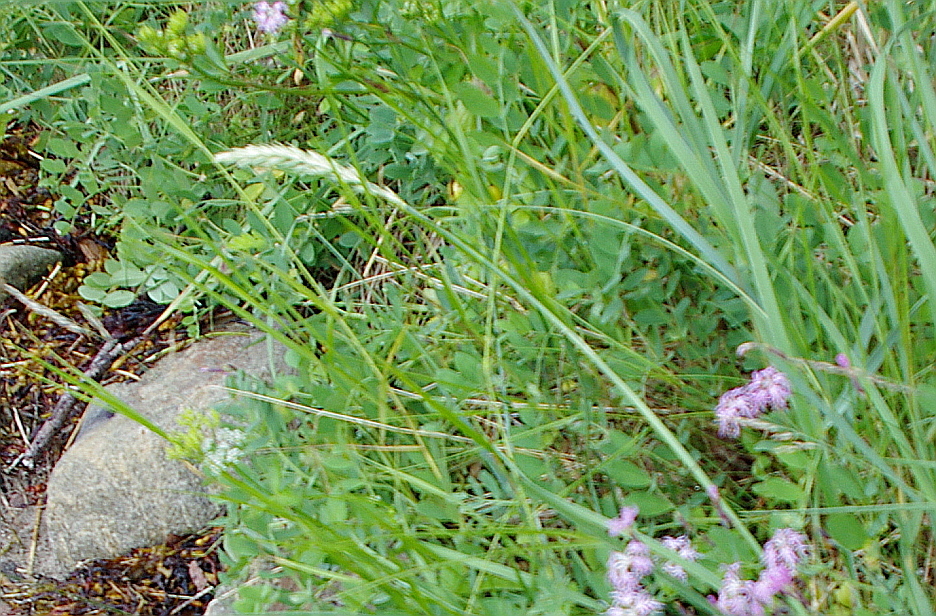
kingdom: Plantae
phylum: Tracheophyta
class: Liliopsida
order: Poales
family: Poaceae
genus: Leymus
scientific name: Leymus arenarius
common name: Lyme-grass
